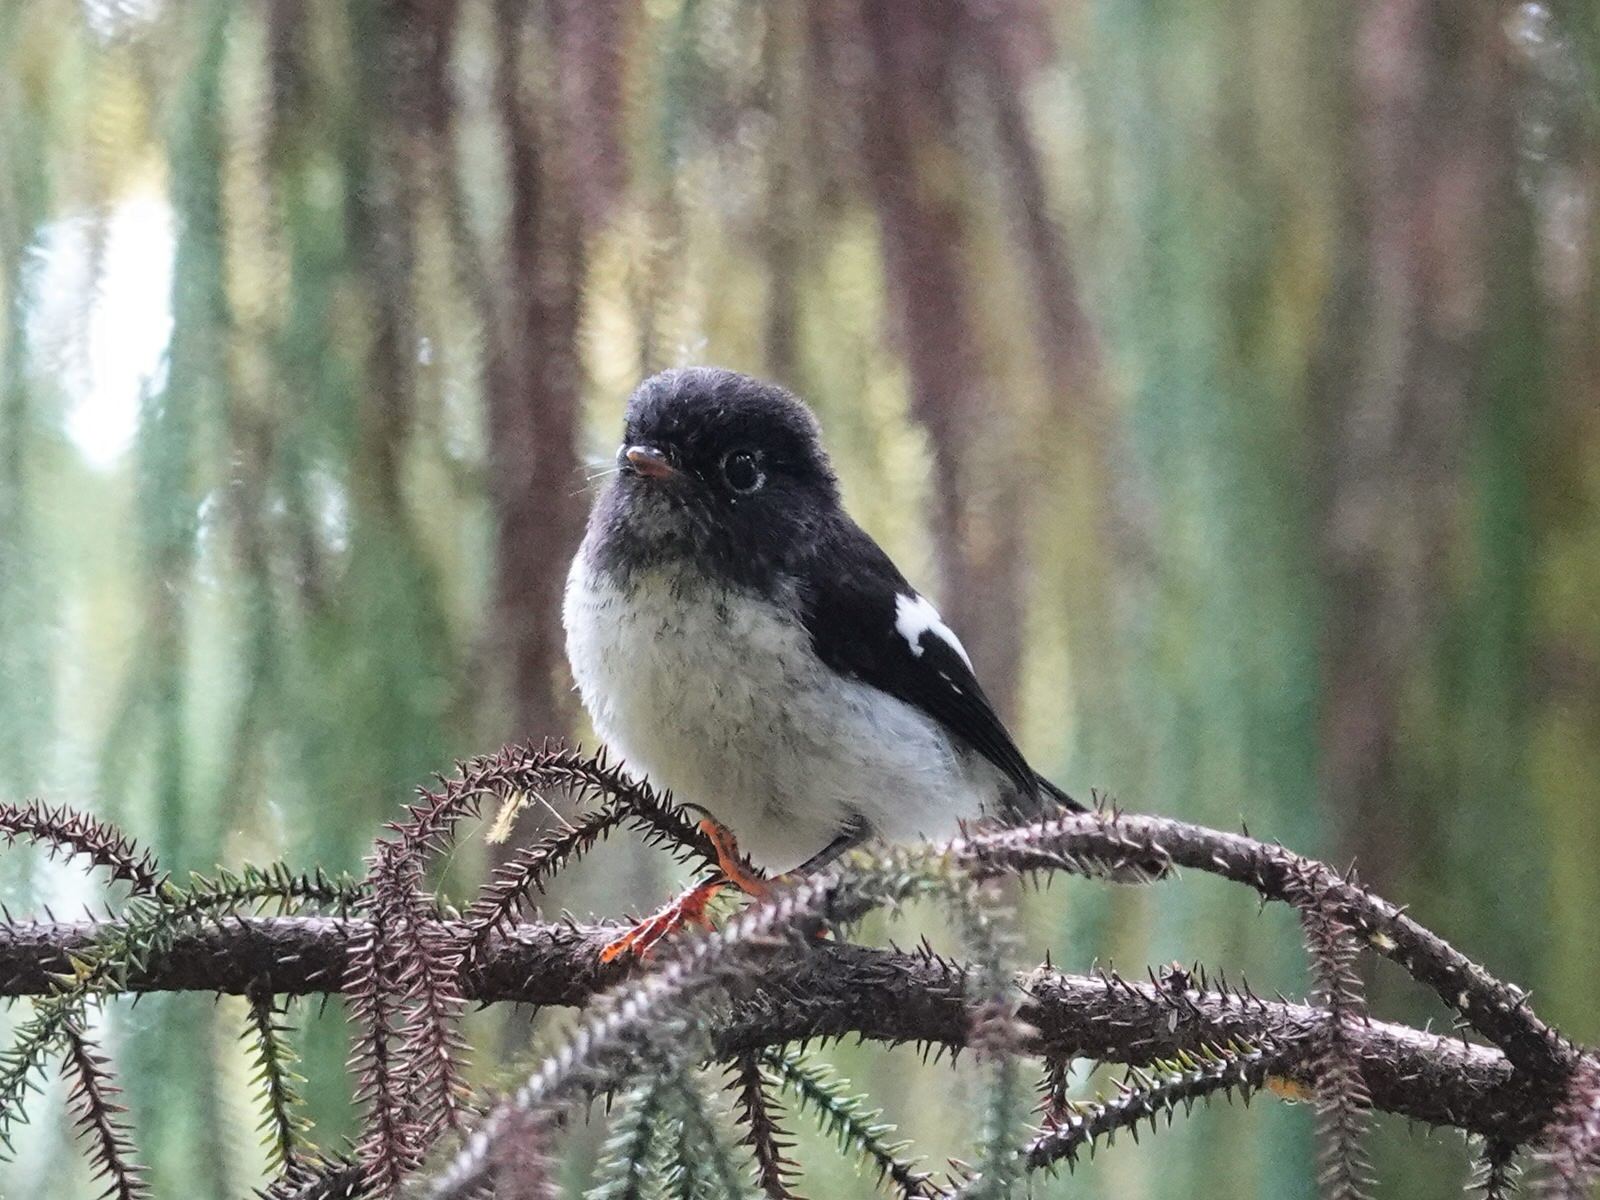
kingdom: Animalia
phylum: Chordata
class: Aves
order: Passeriformes
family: Petroicidae
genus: Petroica
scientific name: Petroica macrocephala
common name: Tomtit
